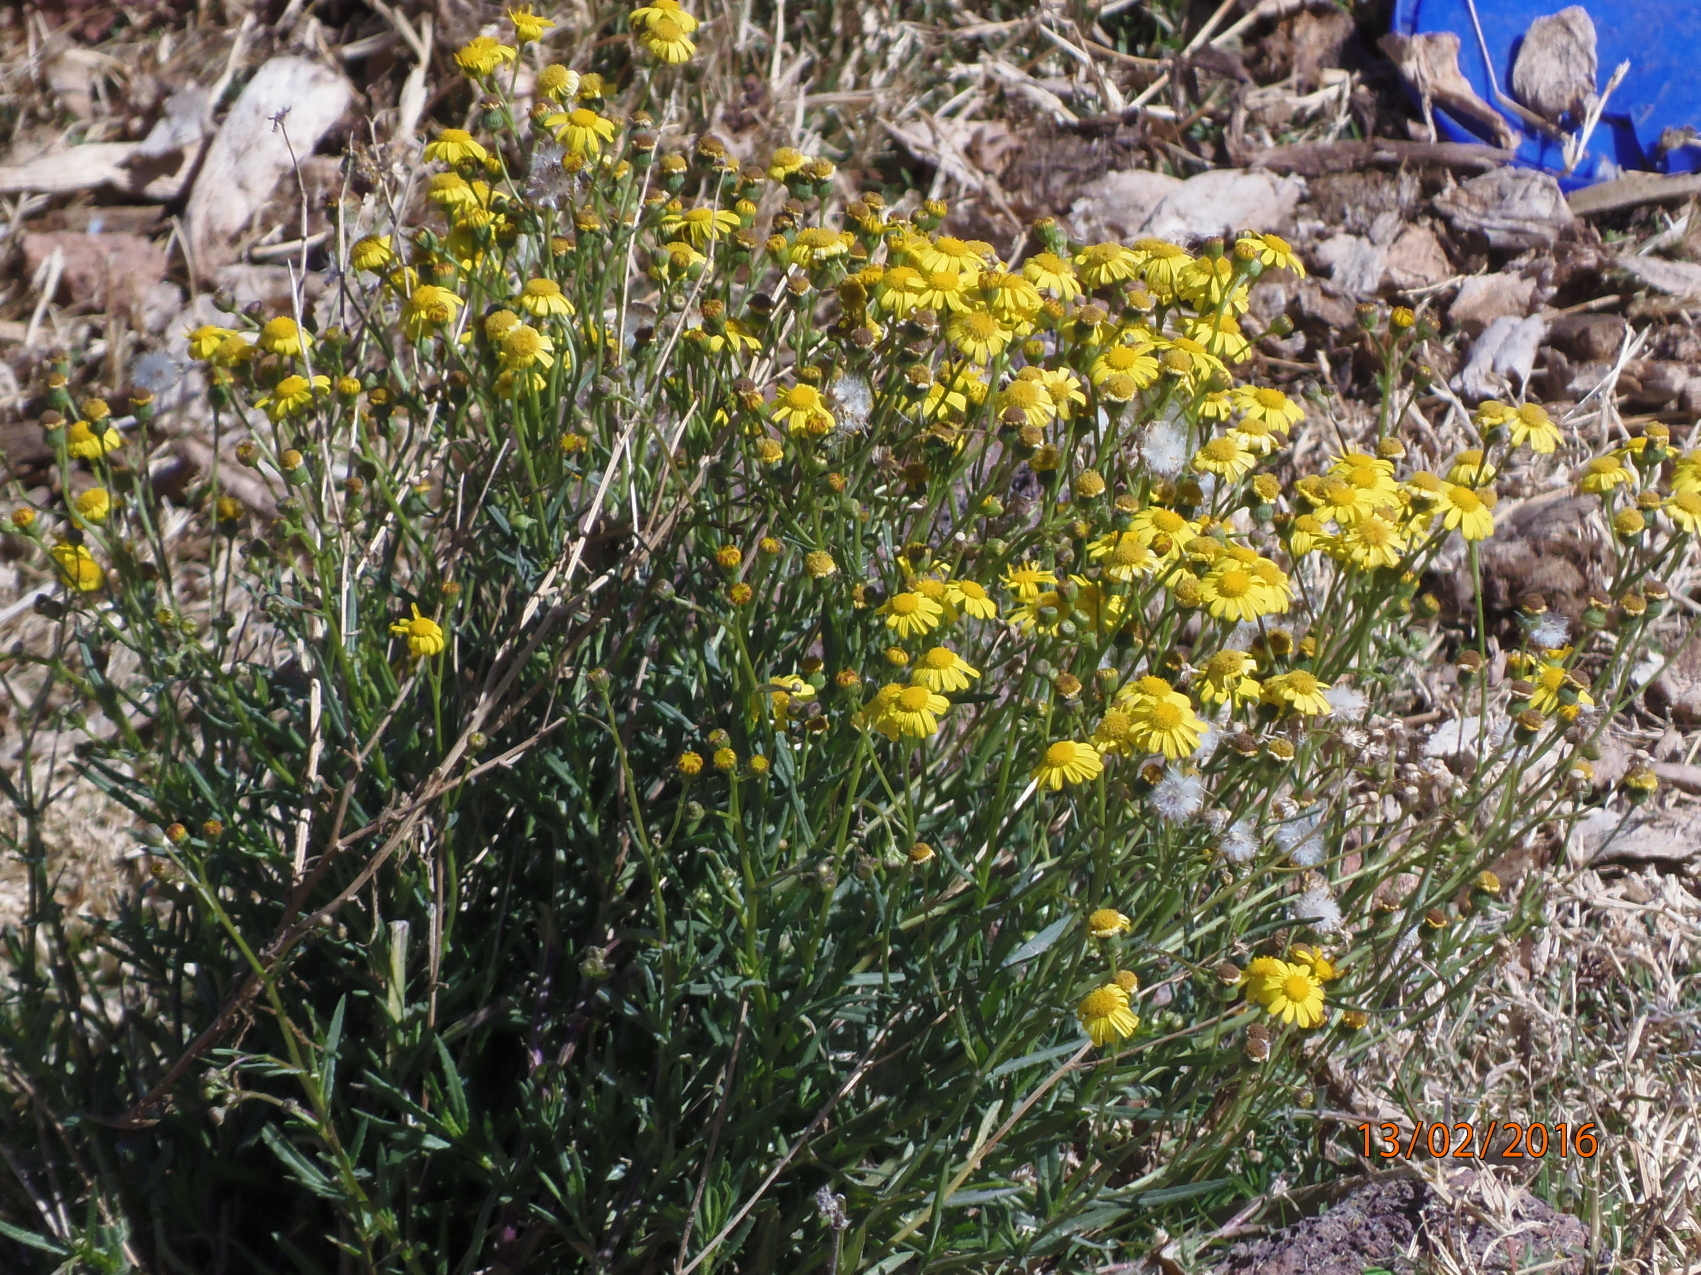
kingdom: Plantae
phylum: Tracheophyta
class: Magnoliopsida
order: Asterales
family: Asteraceae
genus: Senecio
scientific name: Senecio inaequidens
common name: Narrow-leaved ragwort
